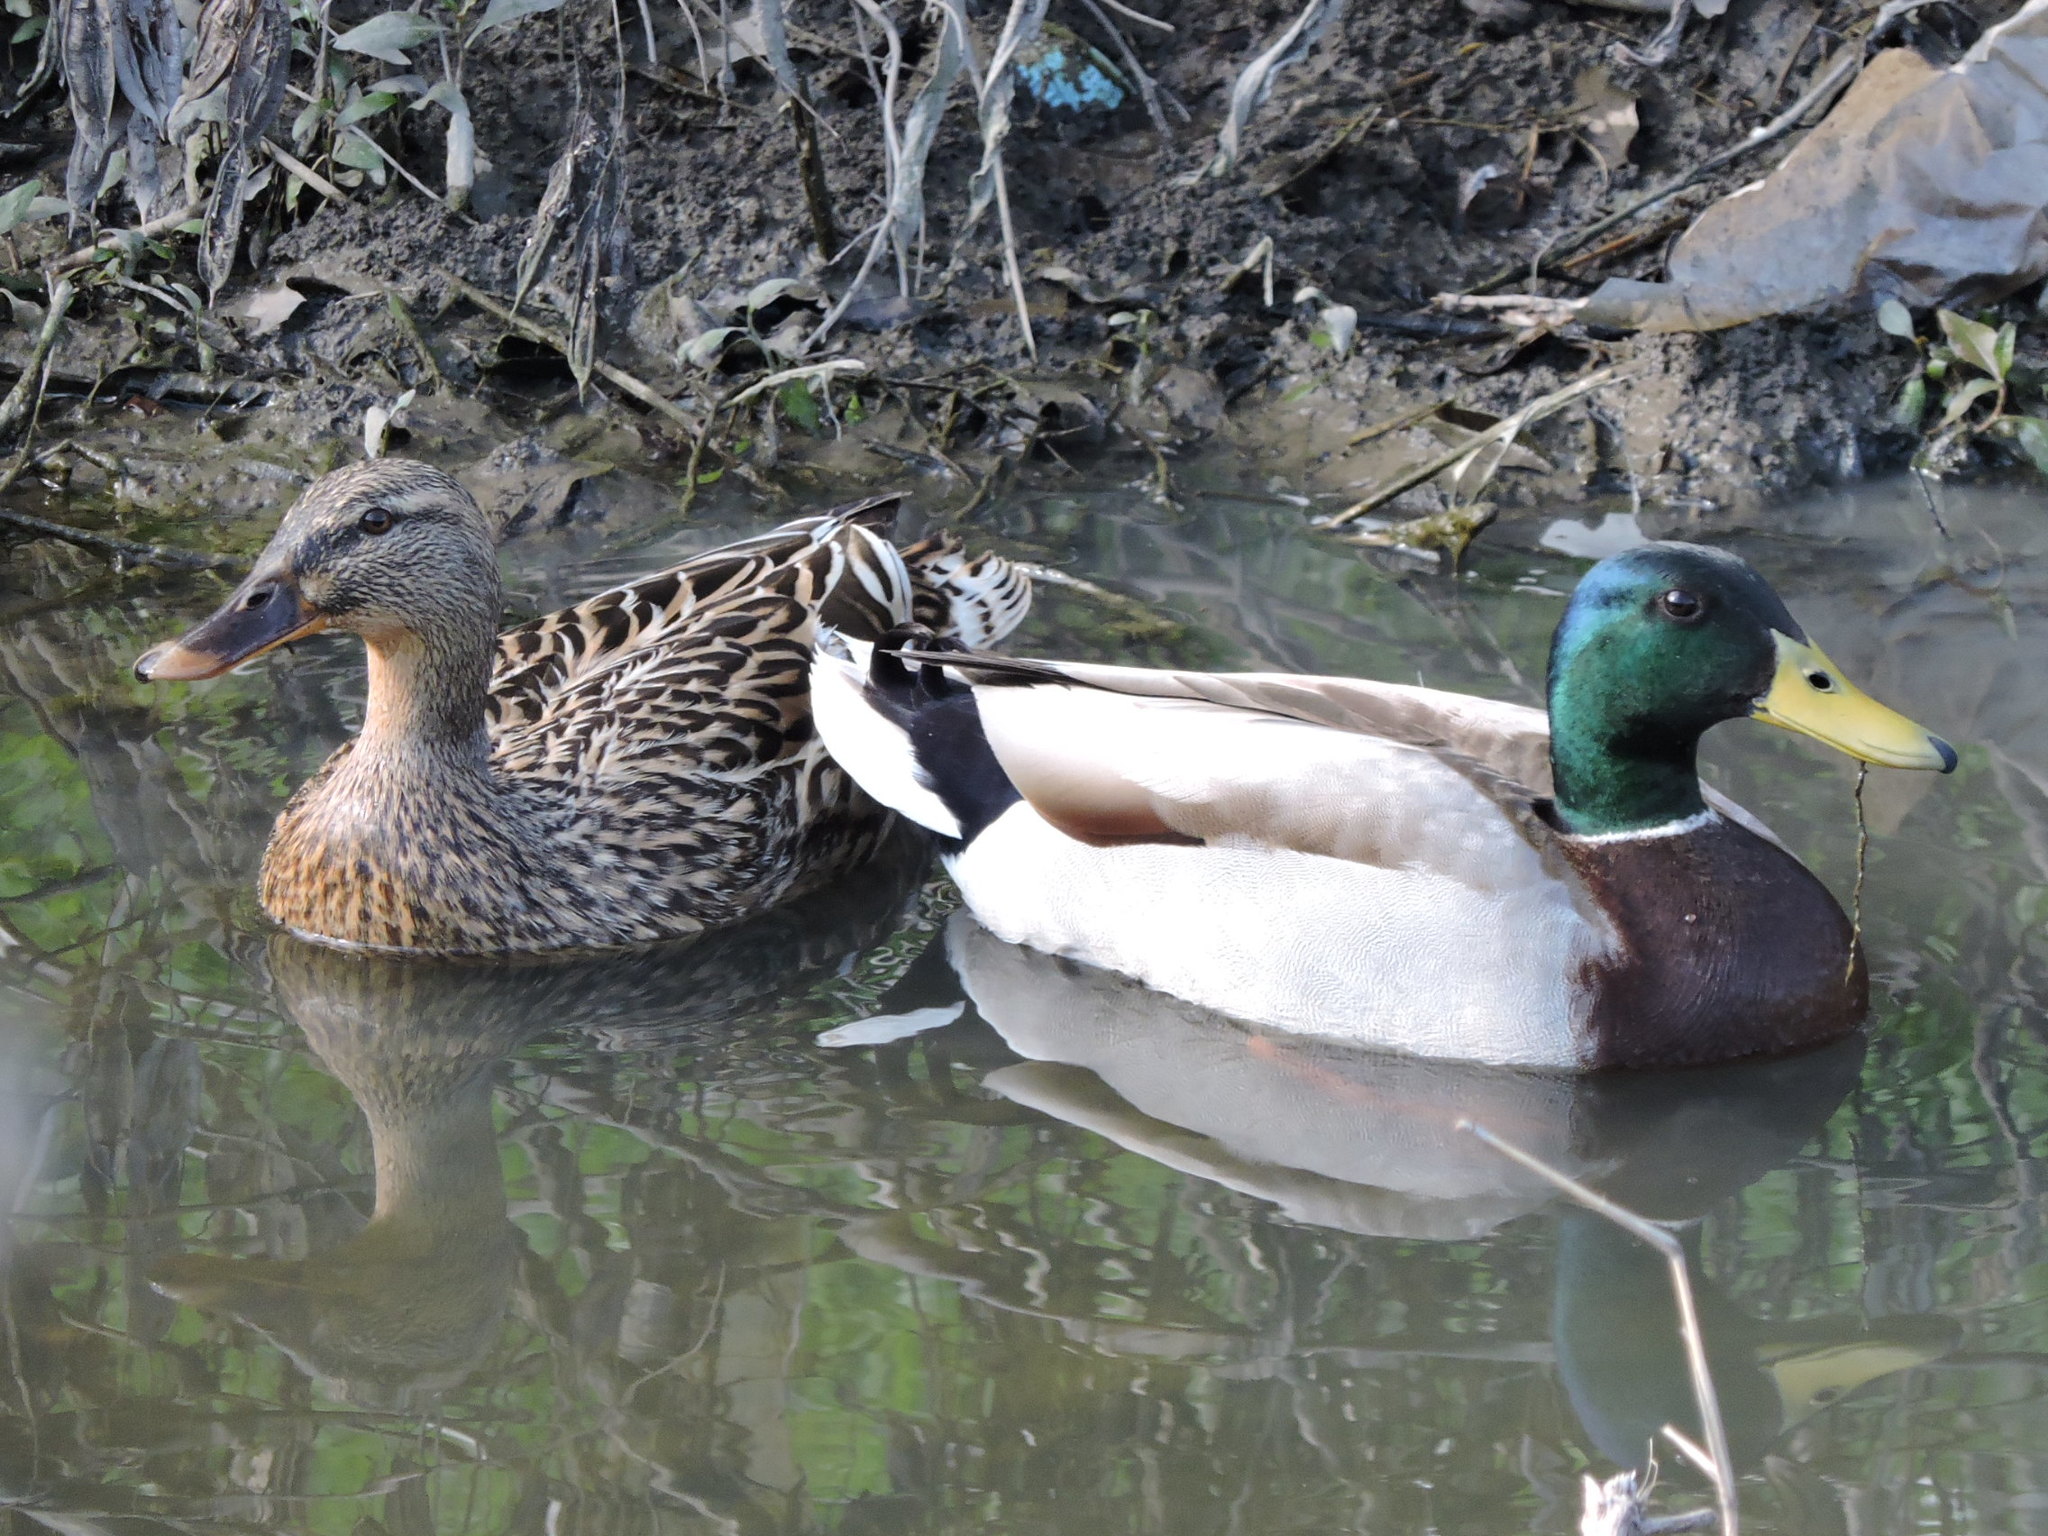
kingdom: Animalia
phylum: Chordata
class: Aves
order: Anseriformes
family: Anatidae
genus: Anas
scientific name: Anas platyrhynchos
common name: Mallard
